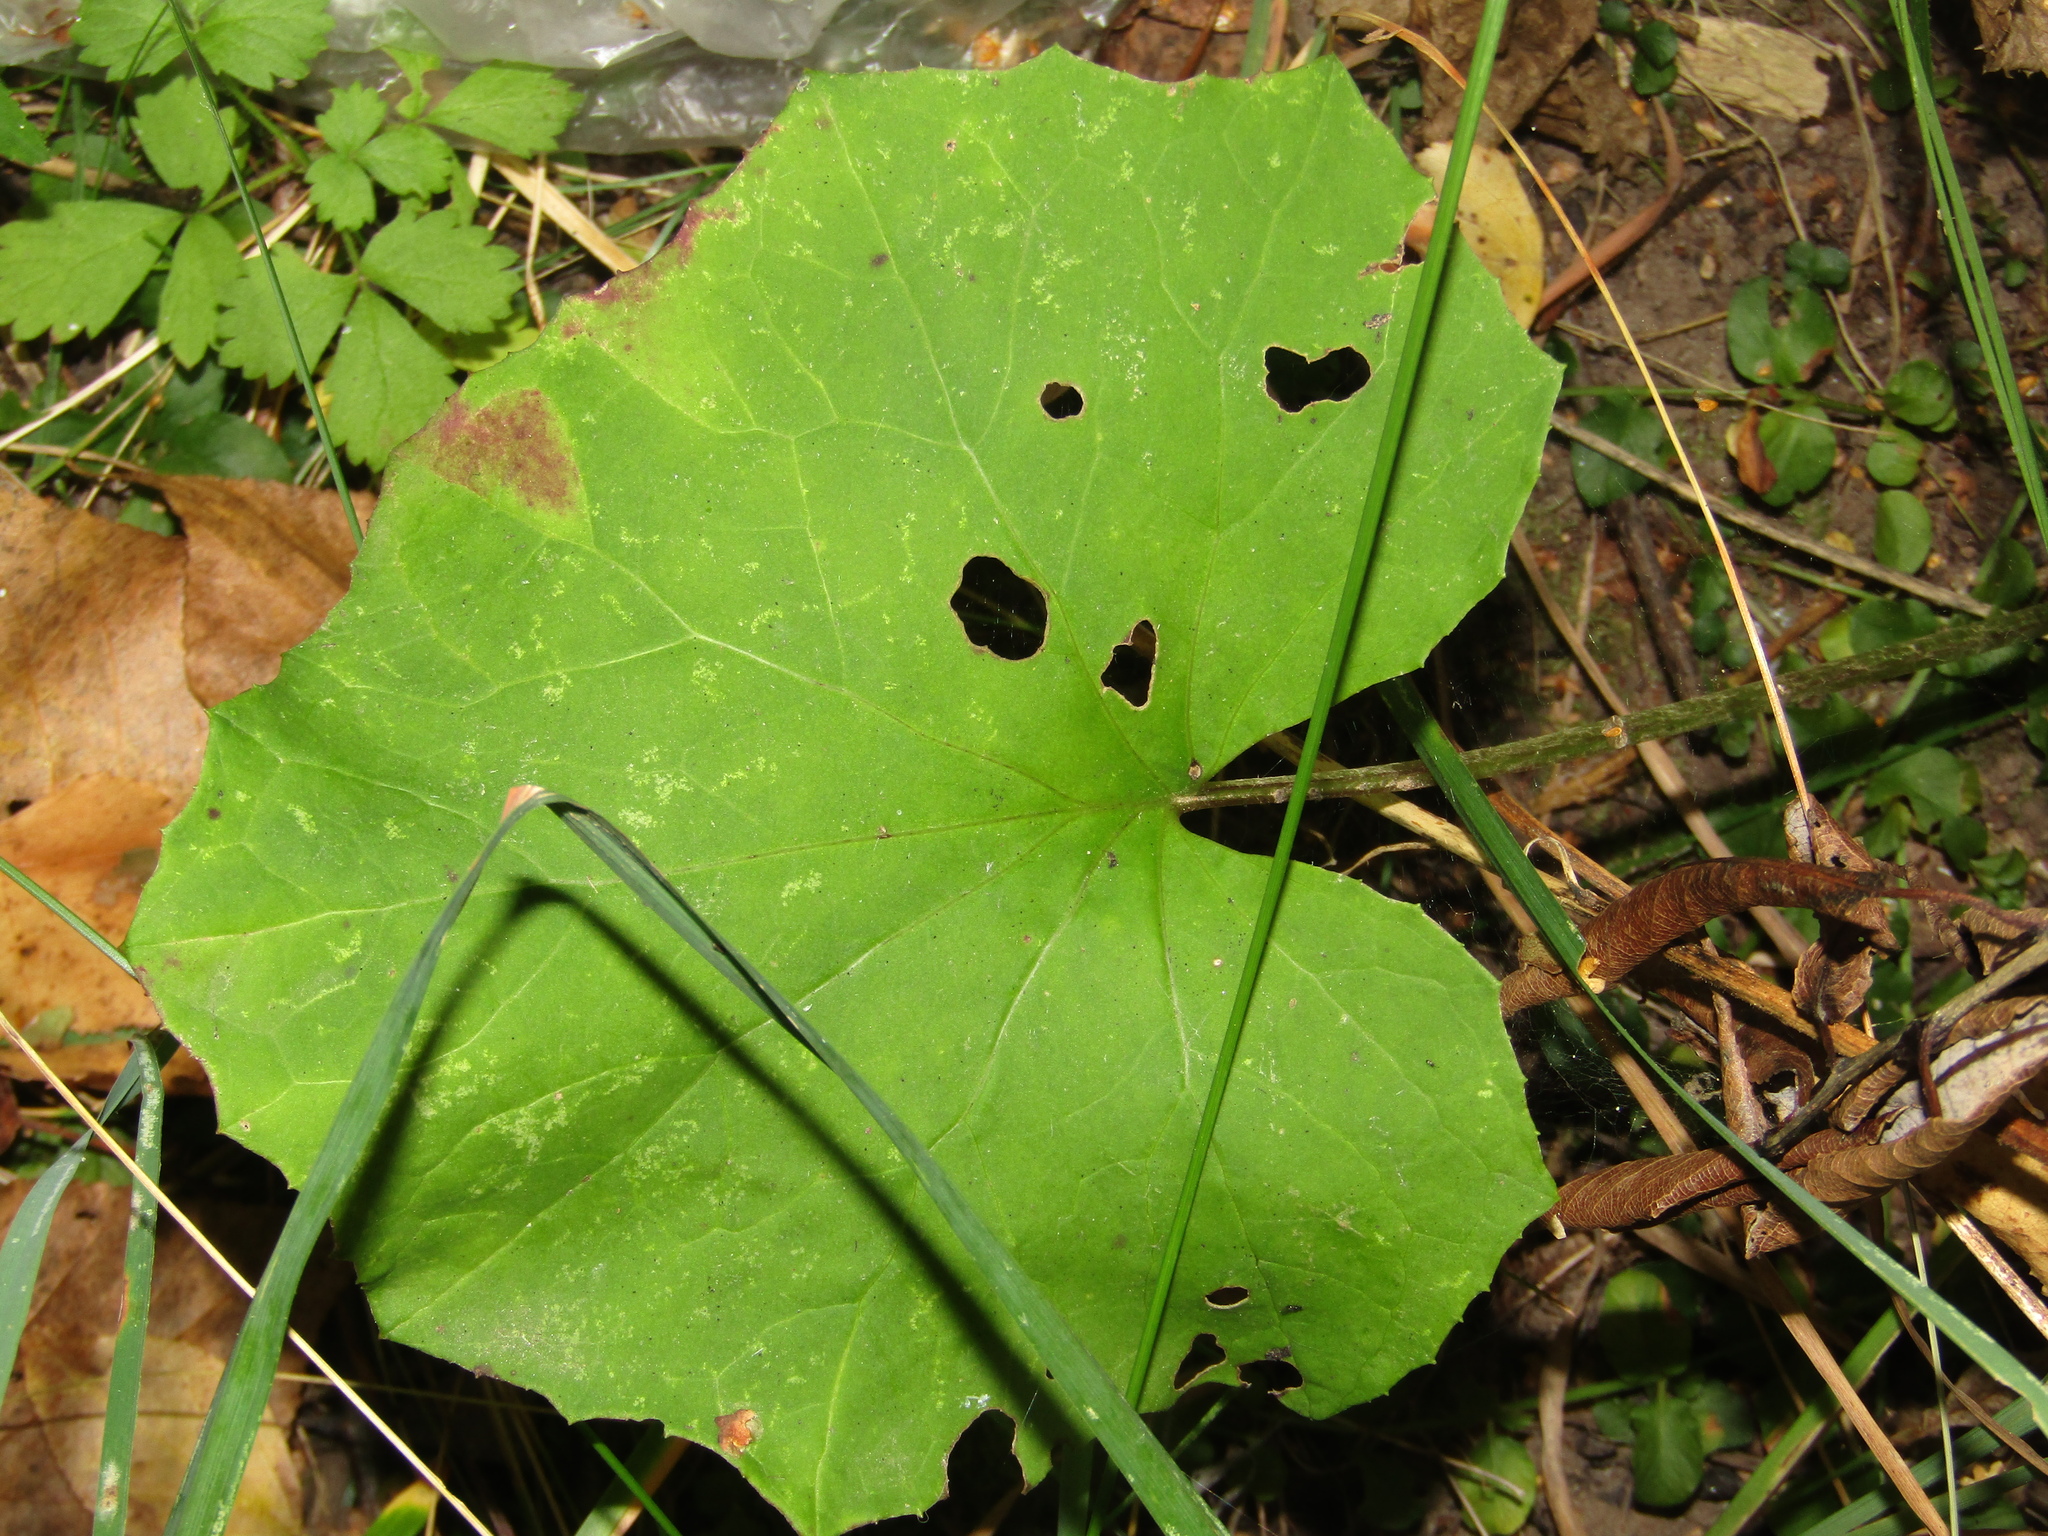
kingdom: Plantae
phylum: Tracheophyta
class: Magnoliopsida
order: Asterales
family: Asteraceae
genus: Tussilago
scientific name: Tussilago farfara
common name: Coltsfoot
